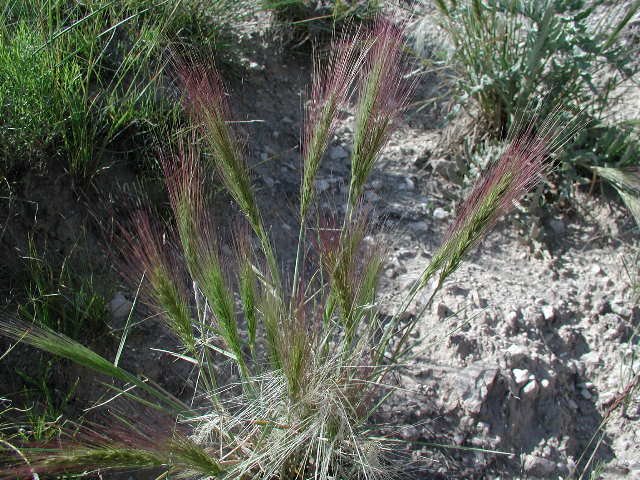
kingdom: Plantae
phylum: Tracheophyta
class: Liliopsida
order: Poales
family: Poaceae
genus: Elymus
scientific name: Elymus elymoides
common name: Bottlebrush squirreltail
